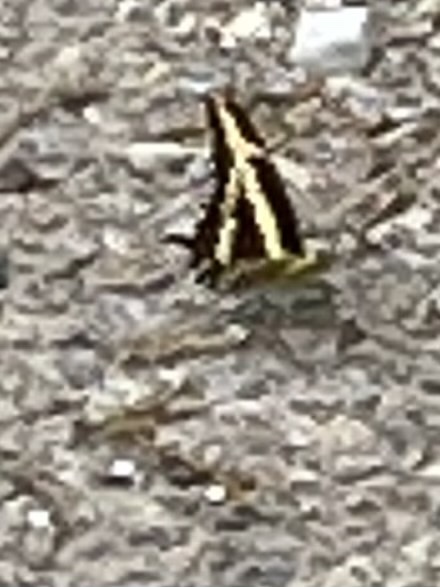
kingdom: Animalia
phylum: Arthropoda
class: Insecta
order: Lepidoptera
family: Papilionidae
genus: Papilio
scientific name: Papilio cresphontes
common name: Giant swallowtail
